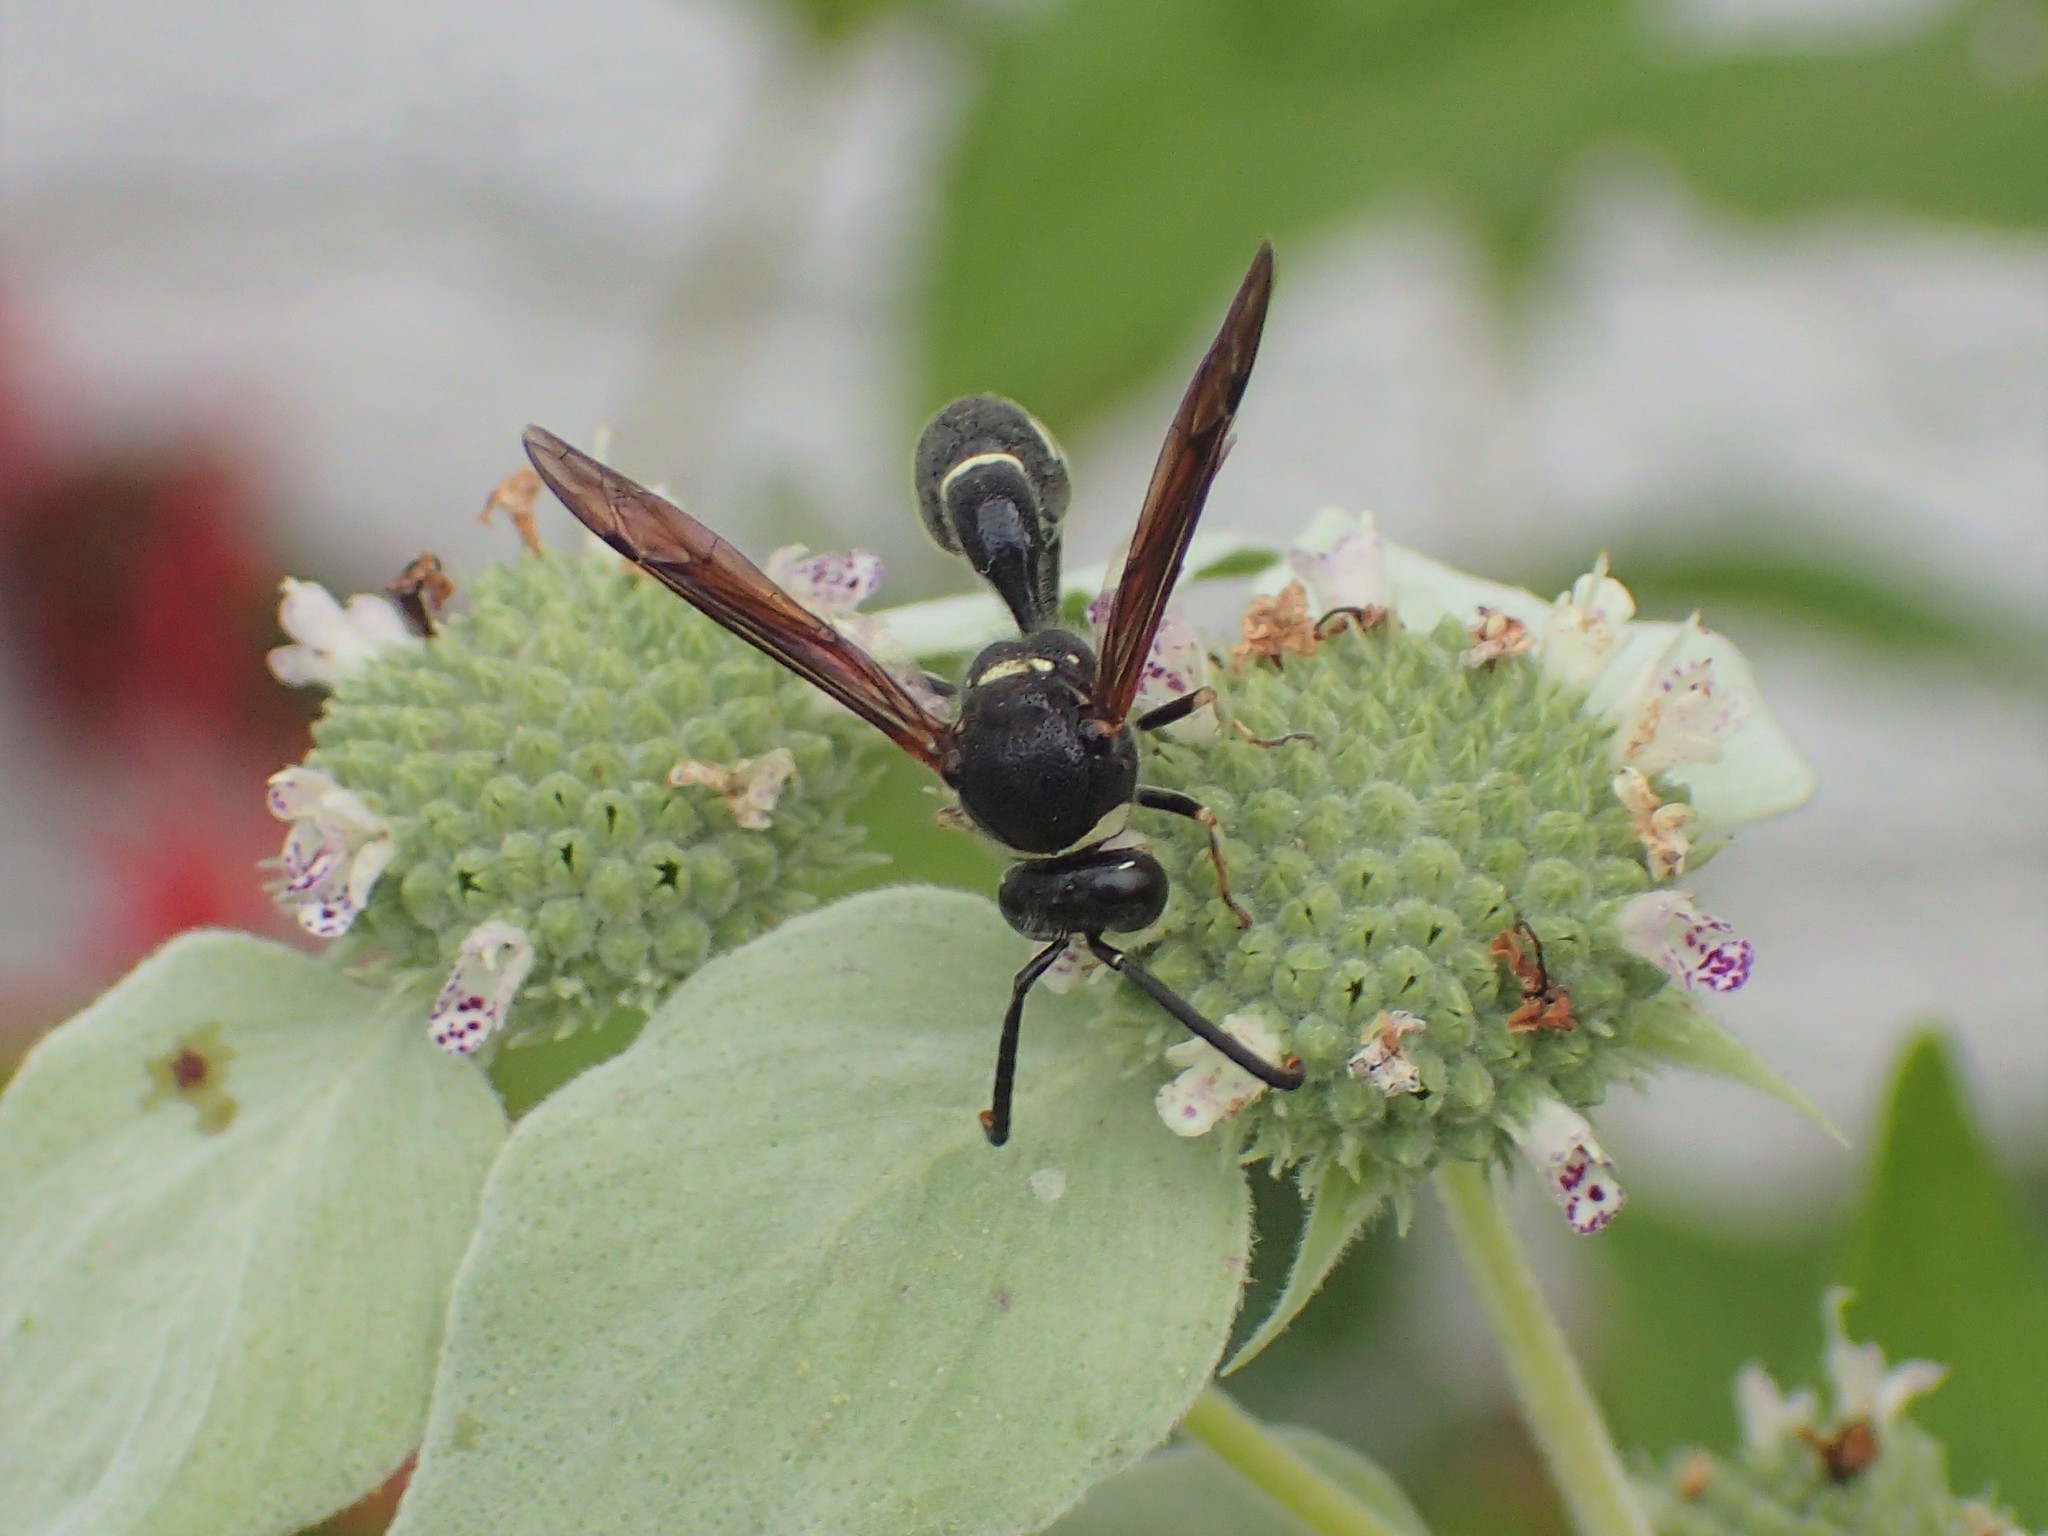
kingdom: Animalia
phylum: Arthropoda
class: Insecta
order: Hymenoptera
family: Vespidae
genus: Eumenes
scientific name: Eumenes fraternus
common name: Fraternal potter wasp
